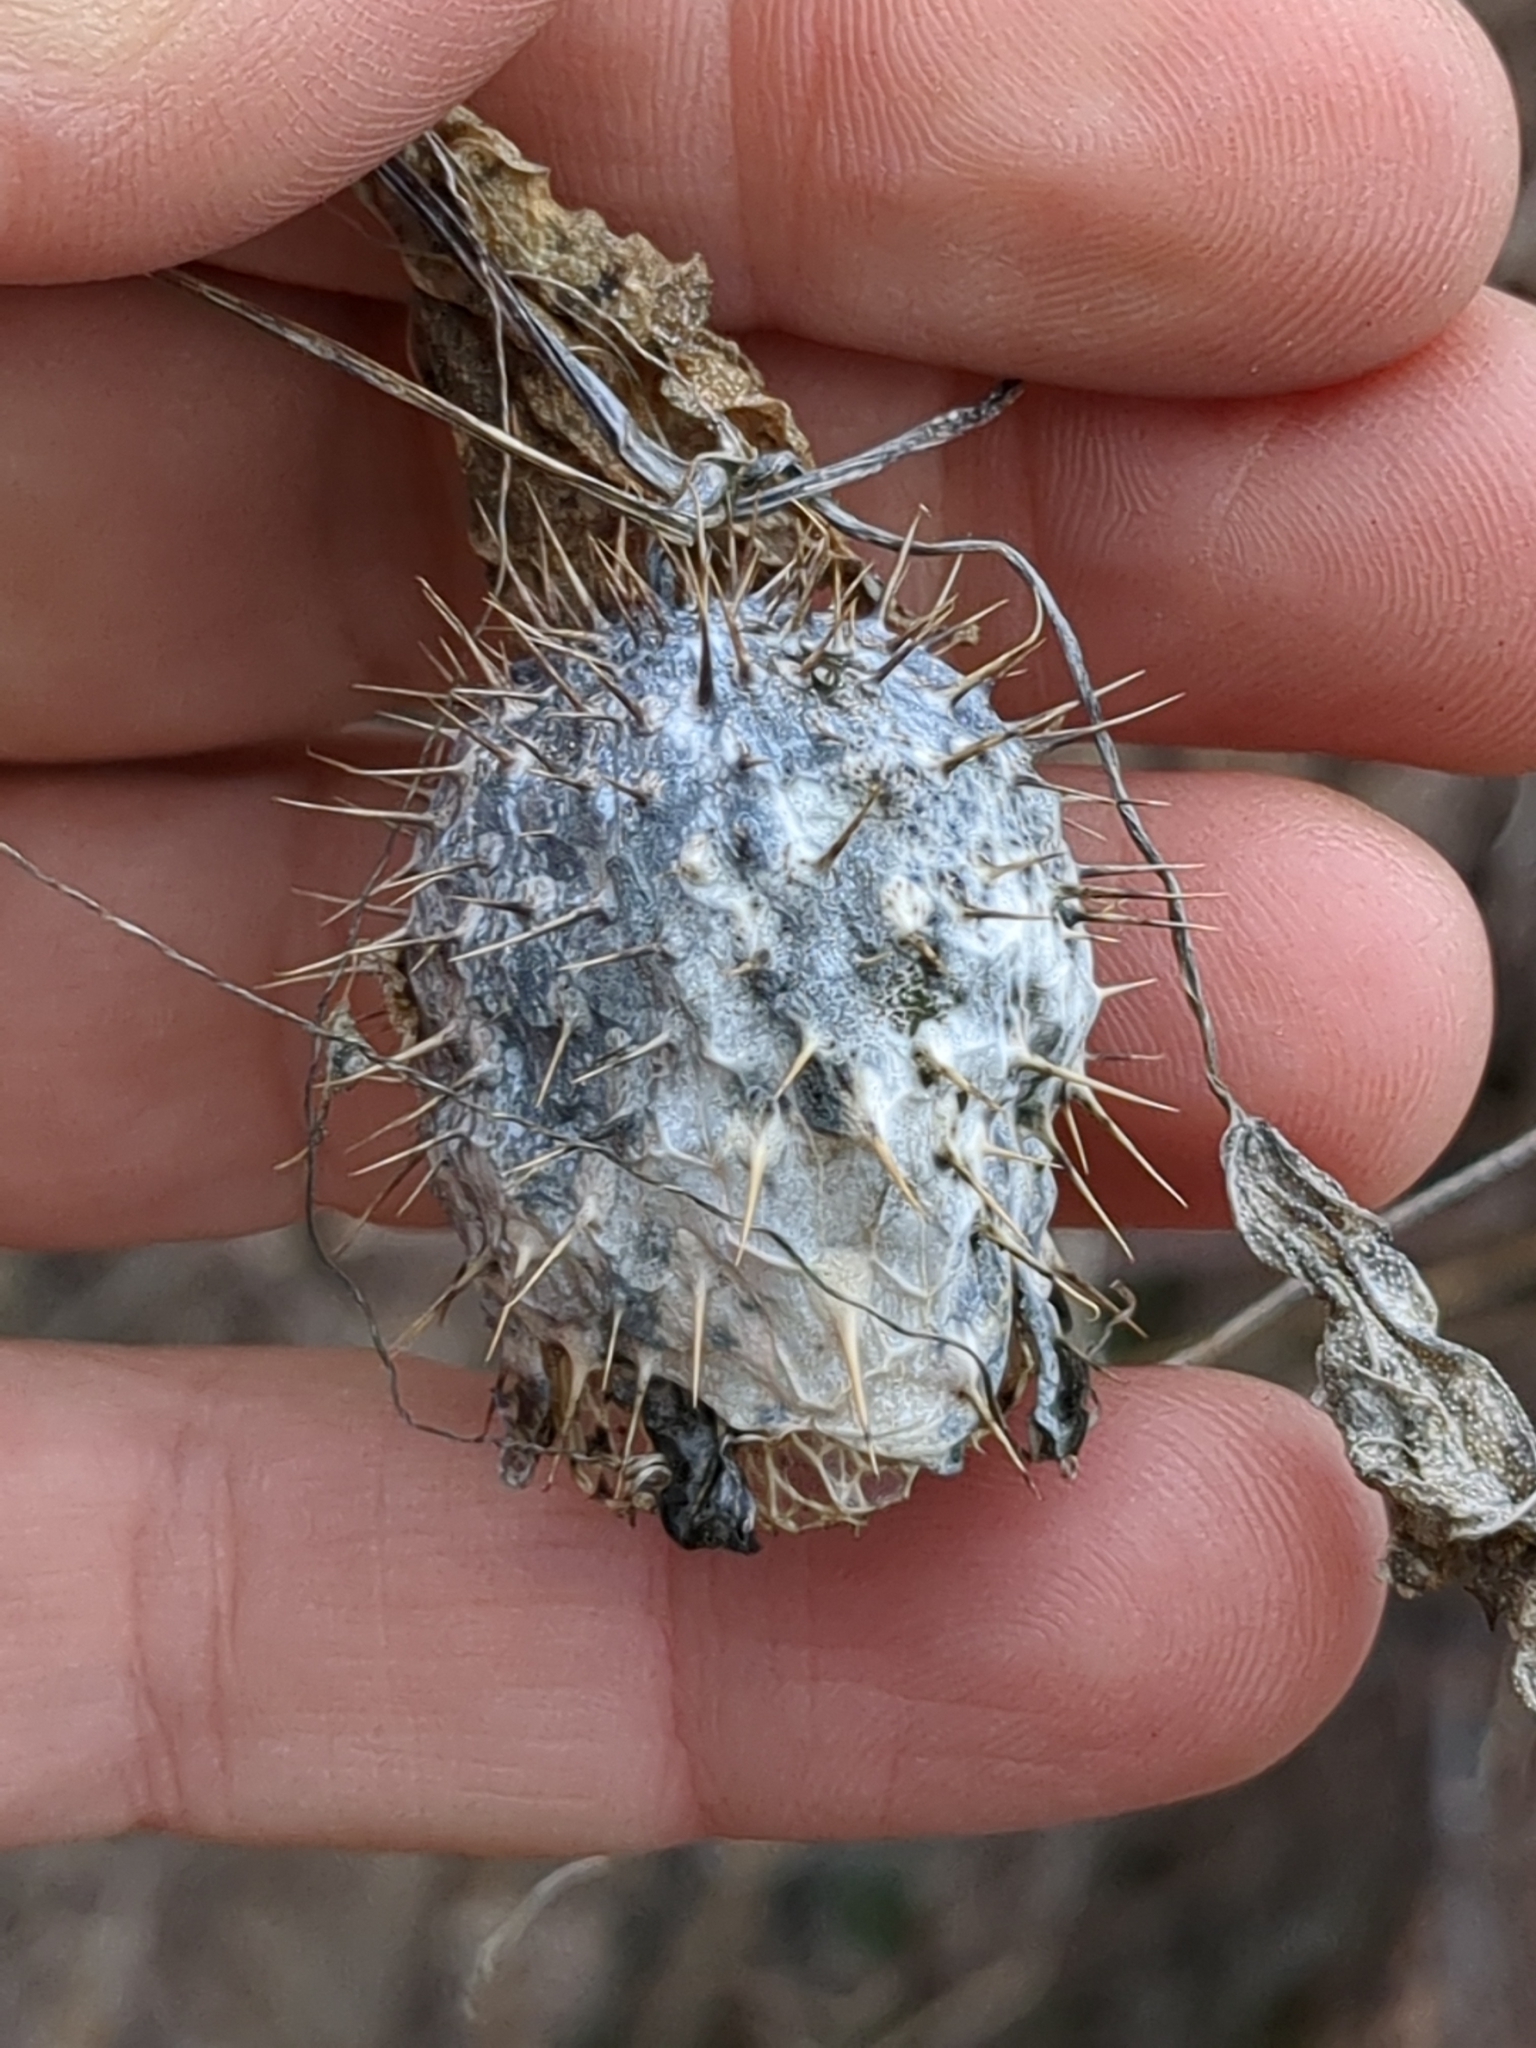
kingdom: Plantae
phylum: Tracheophyta
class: Magnoliopsida
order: Cucurbitales
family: Cucurbitaceae
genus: Echinocystis
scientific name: Echinocystis lobata
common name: Wild cucumber
